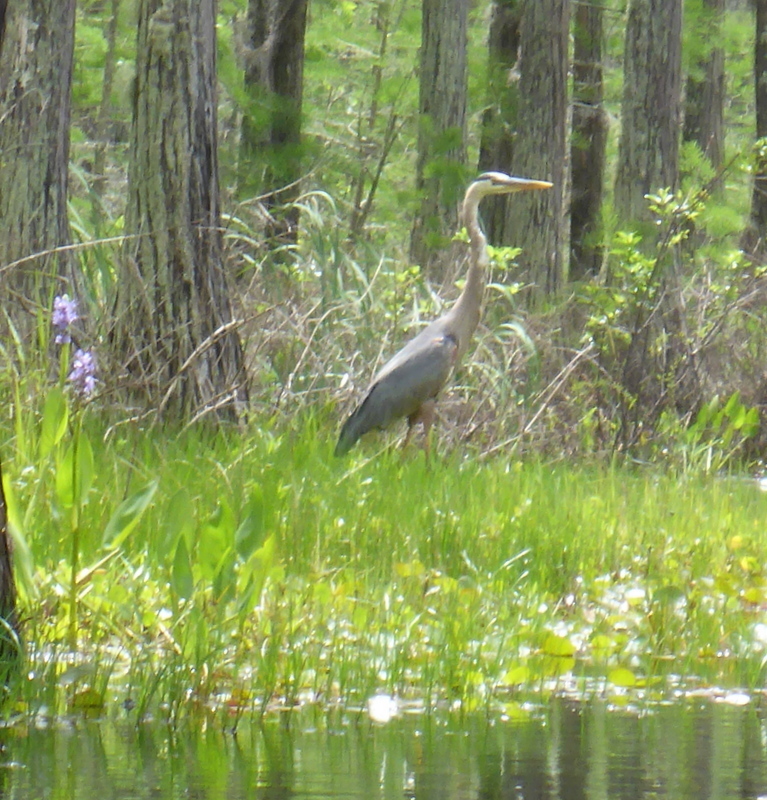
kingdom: Animalia
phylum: Chordata
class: Aves
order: Pelecaniformes
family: Ardeidae
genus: Ardea
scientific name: Ardea herodias
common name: Great blue heron
